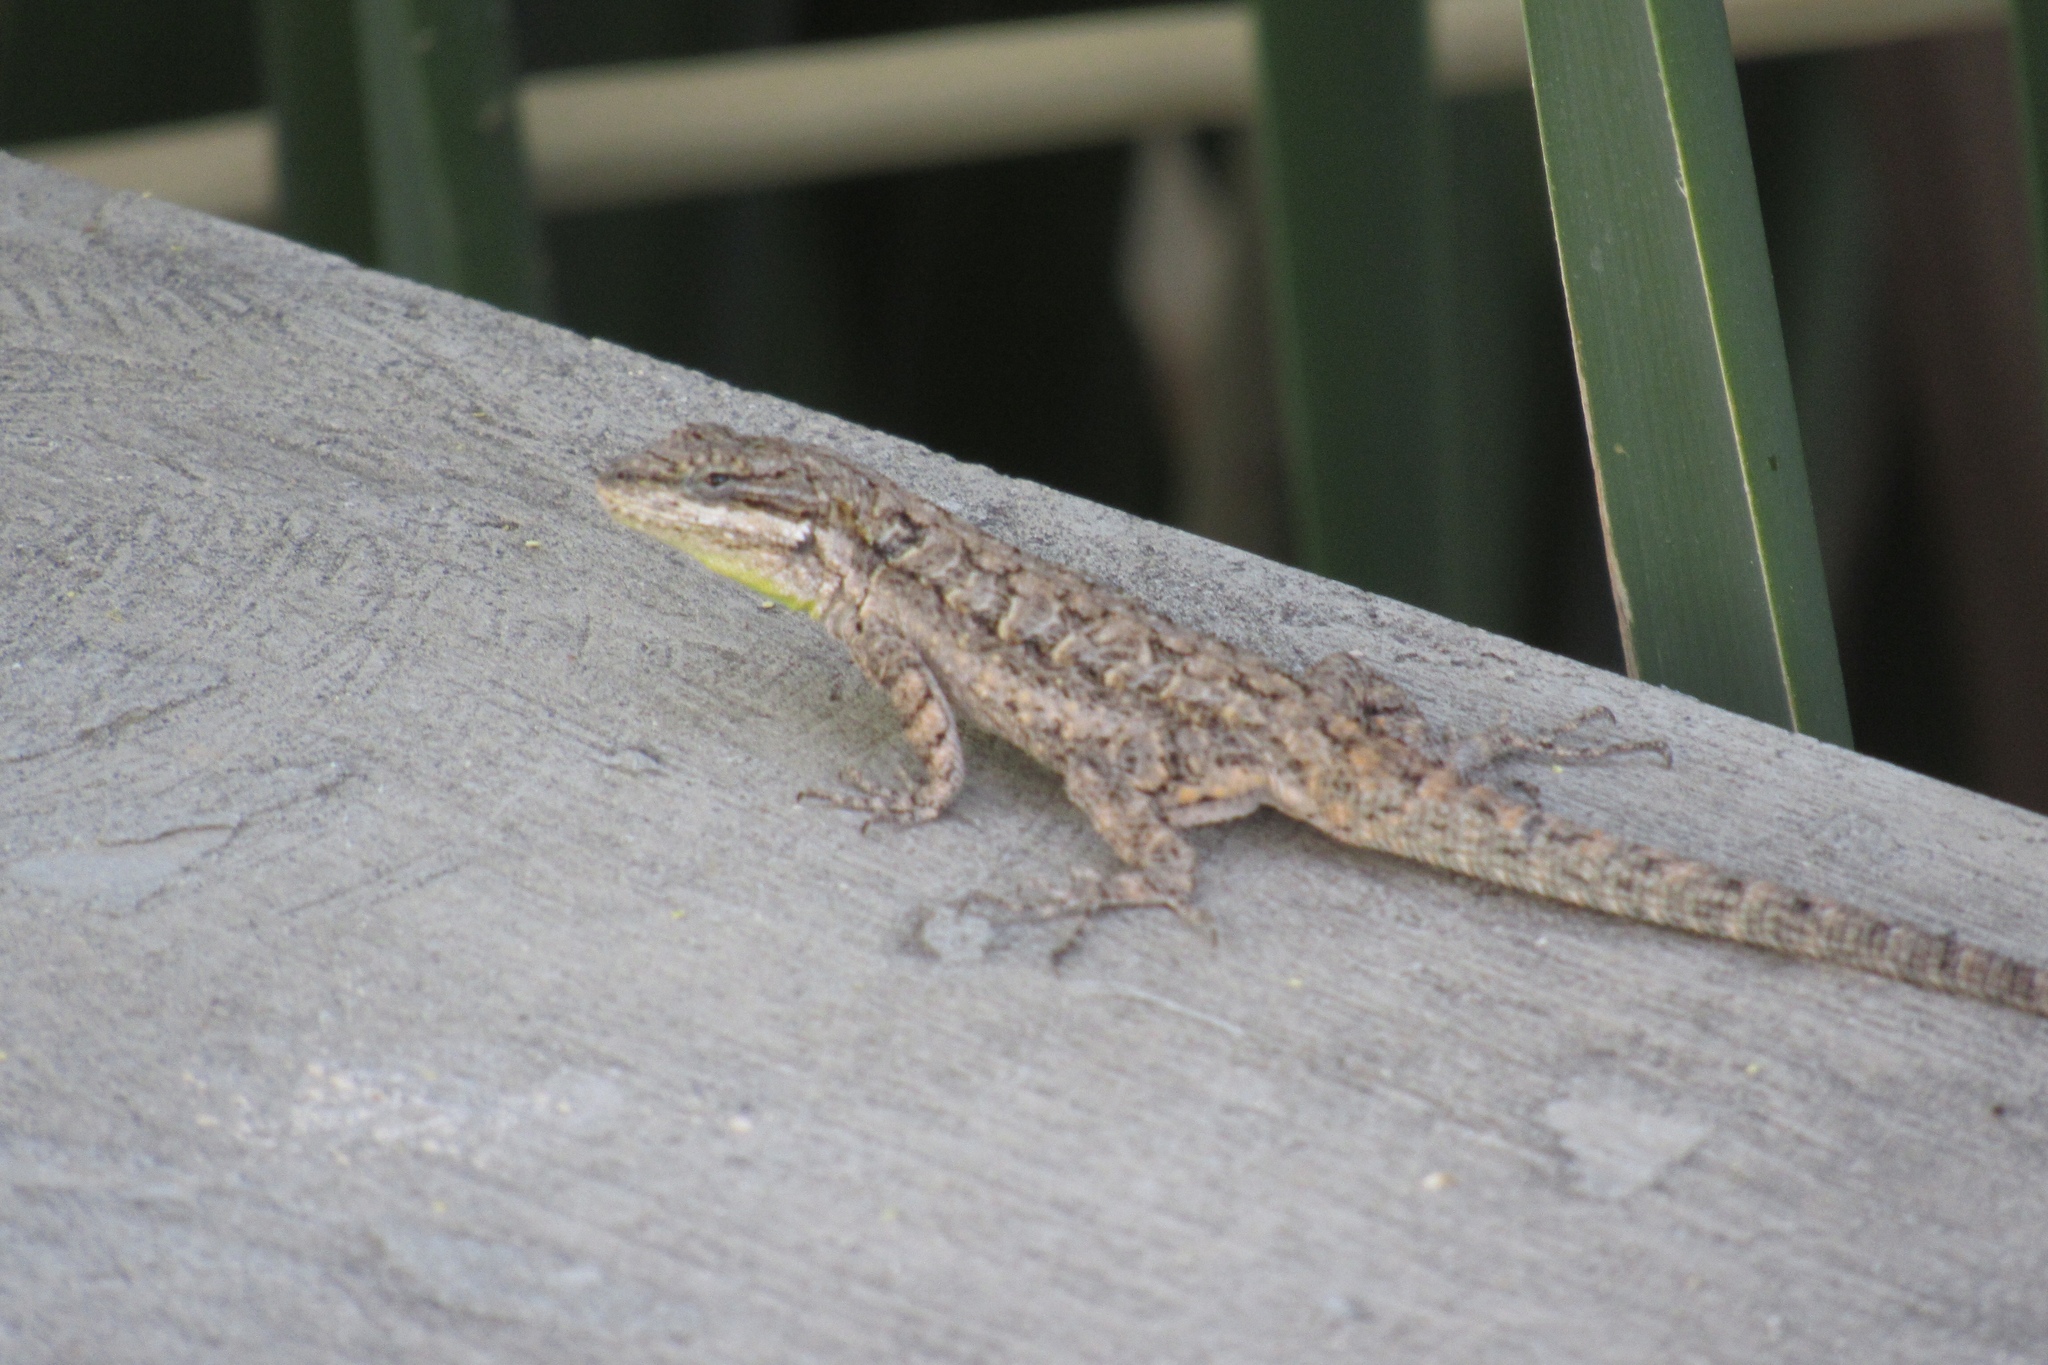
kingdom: Animalia
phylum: Chordata
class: Squamata
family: Phrynosomatidae
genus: Urosaurus
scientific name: Urosaurus ornatus
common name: Ornate tree lizard
